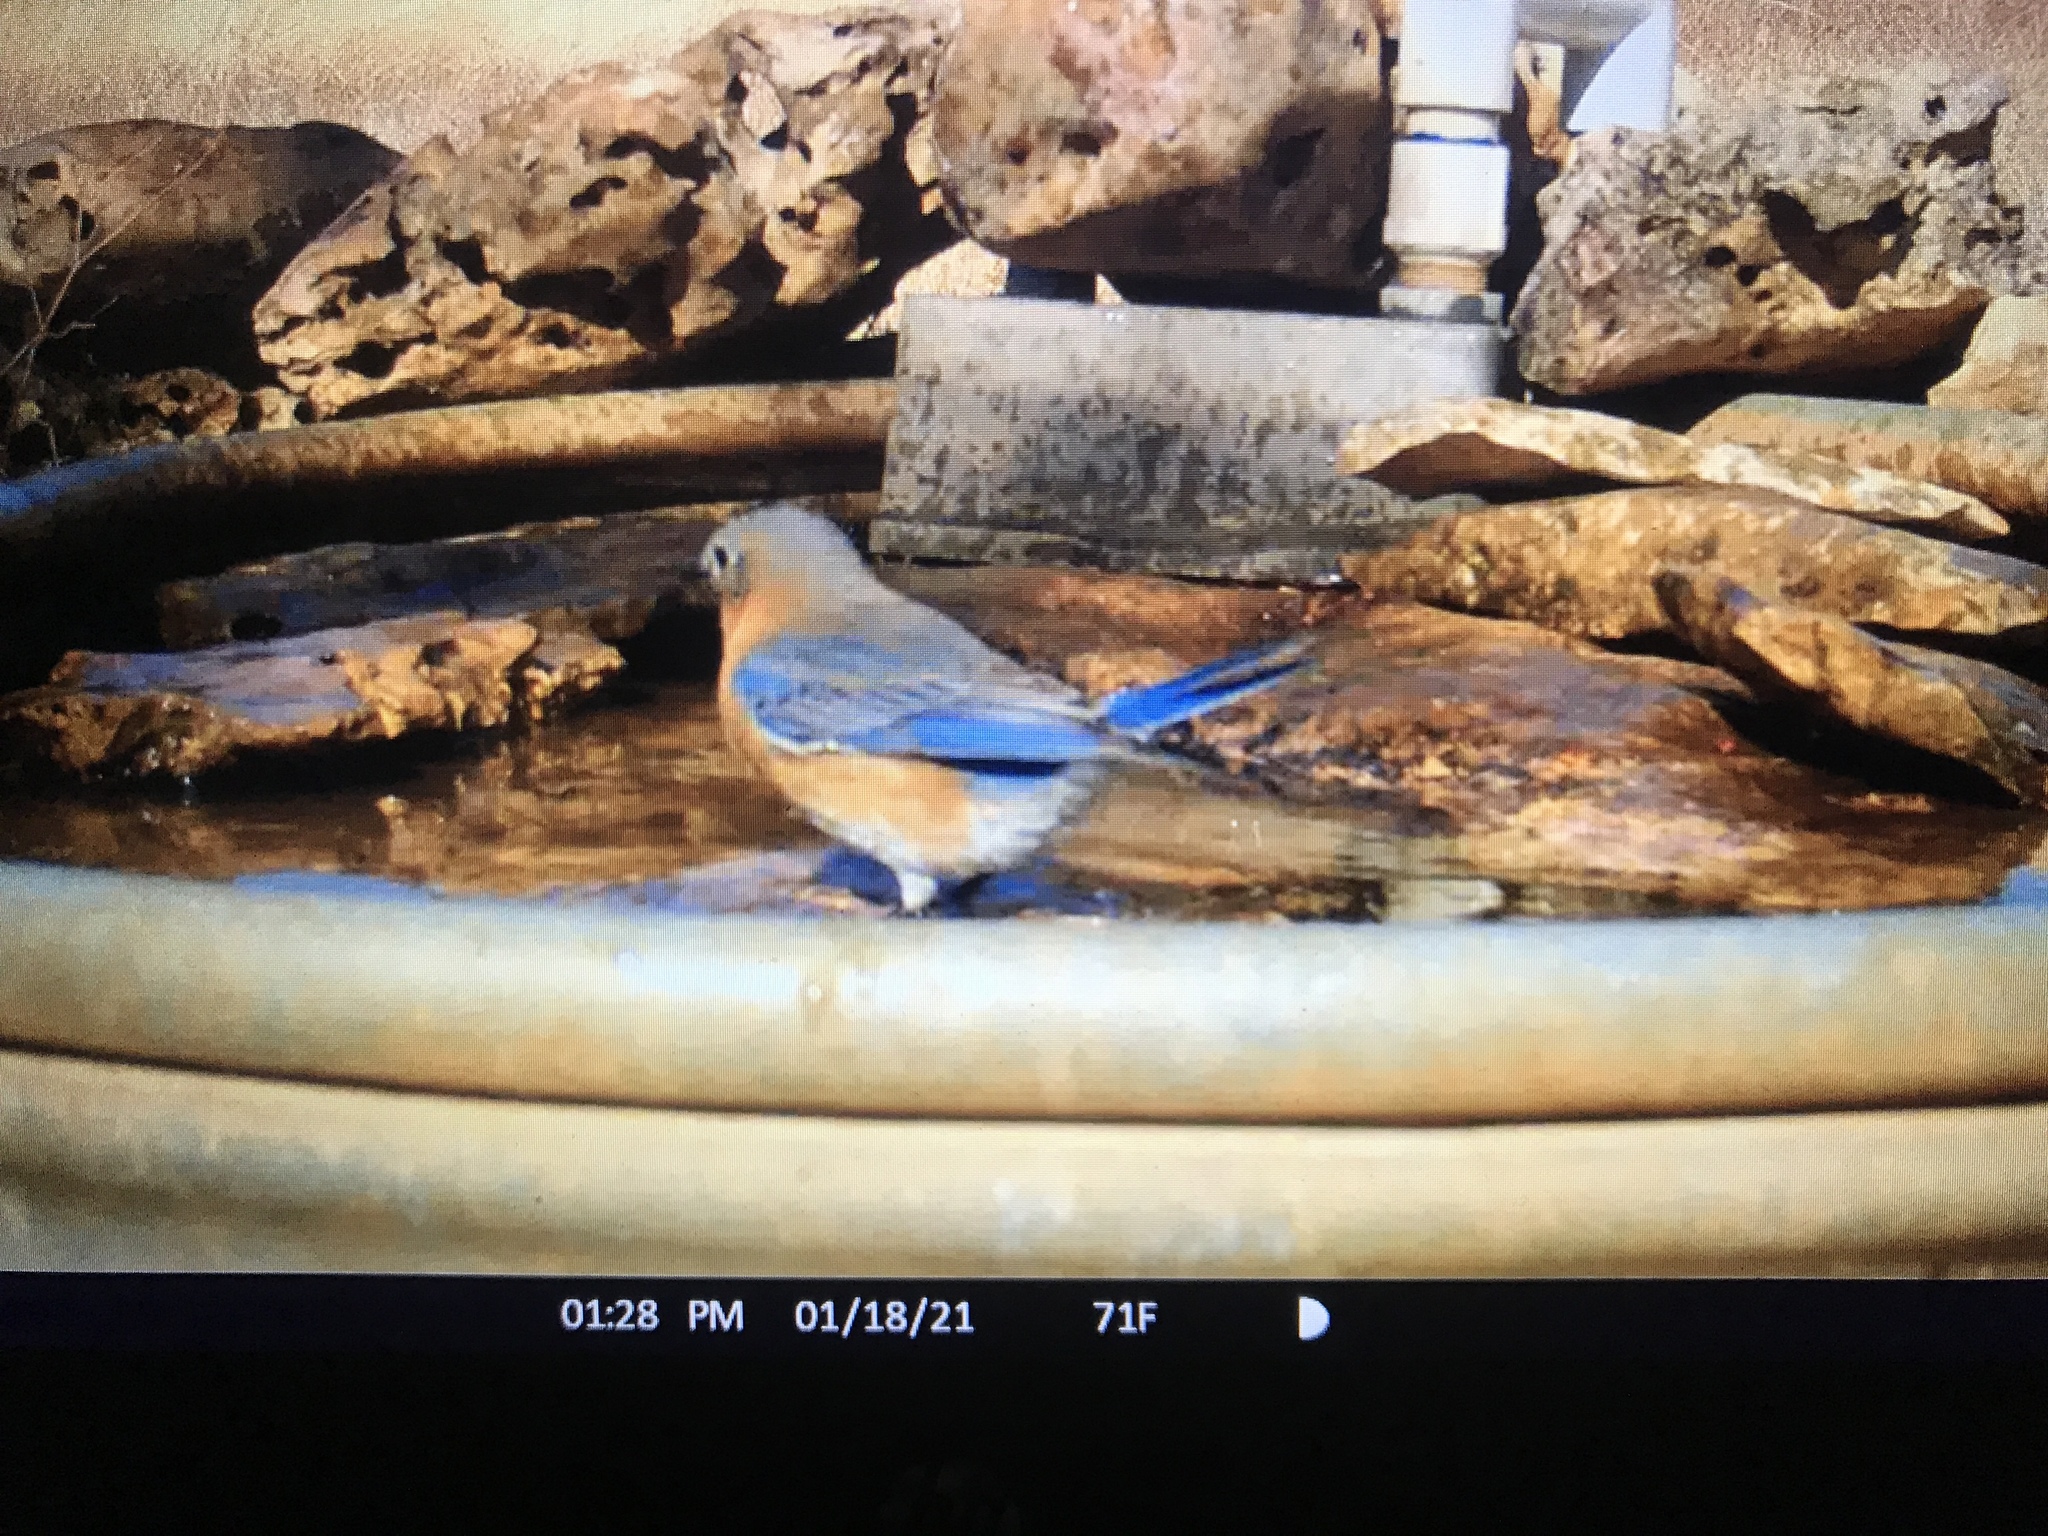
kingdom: Animalia
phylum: Chordata
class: Aves
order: Passeriformes
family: Turdidae
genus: Sialia
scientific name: Sialia sialis
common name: Eastern bluebird
